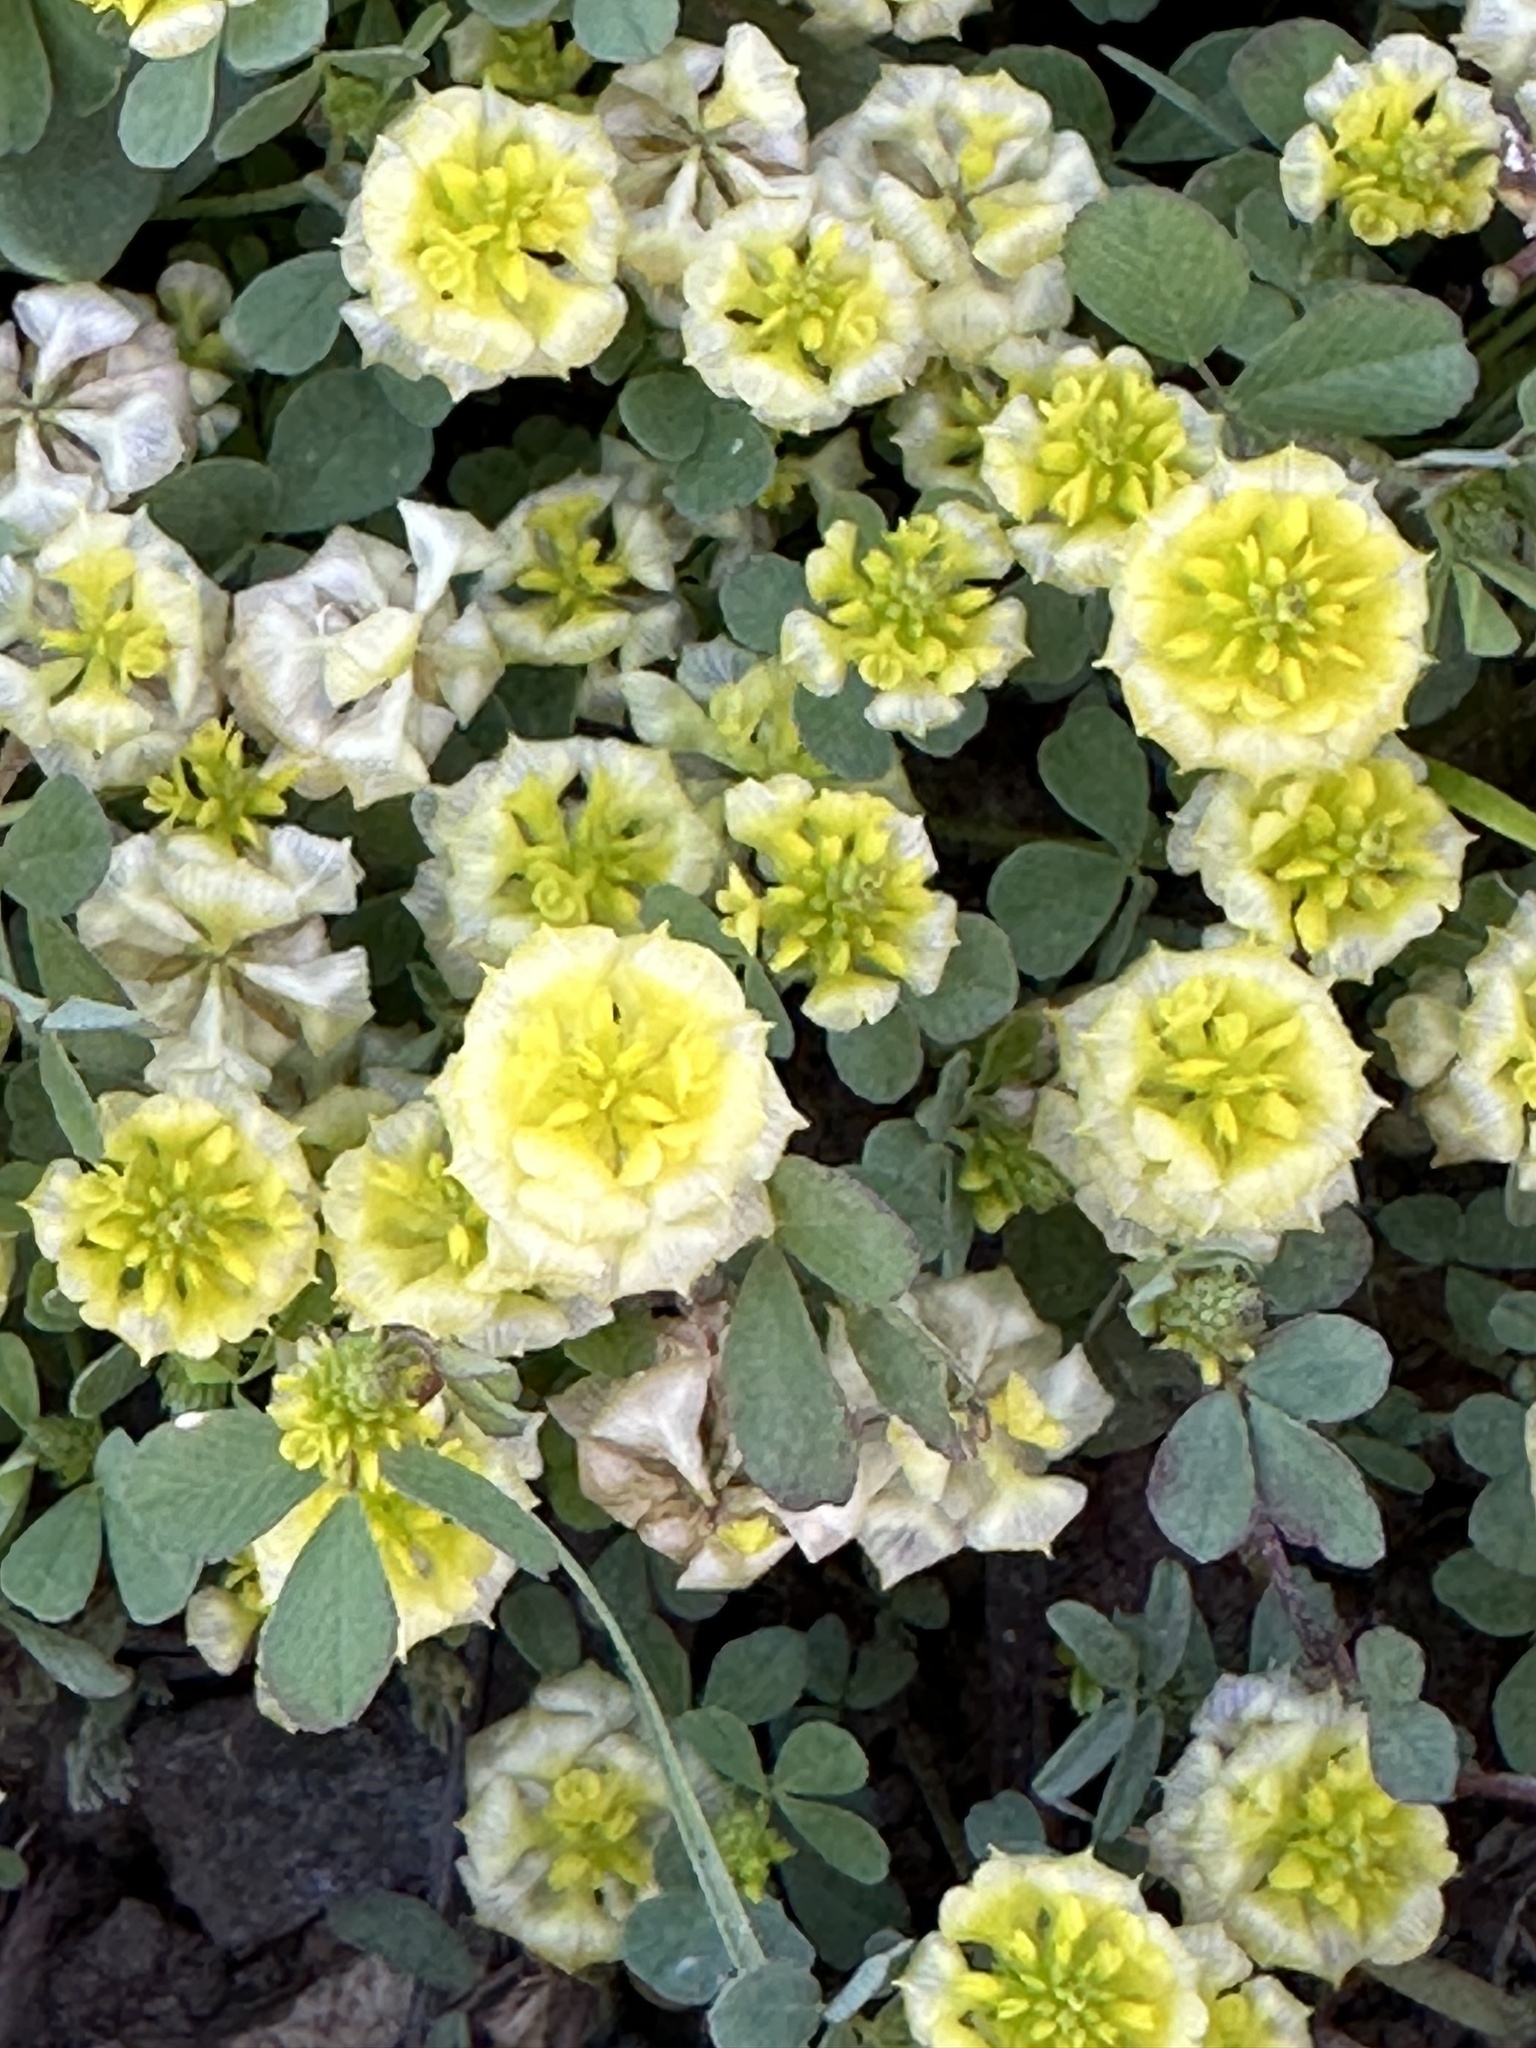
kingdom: Plantae
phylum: Tracheophyta
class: Magnoliopsida
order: Fabales
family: Fabaceae
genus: Trifolium
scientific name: Trifolium campestre
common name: Field clover
